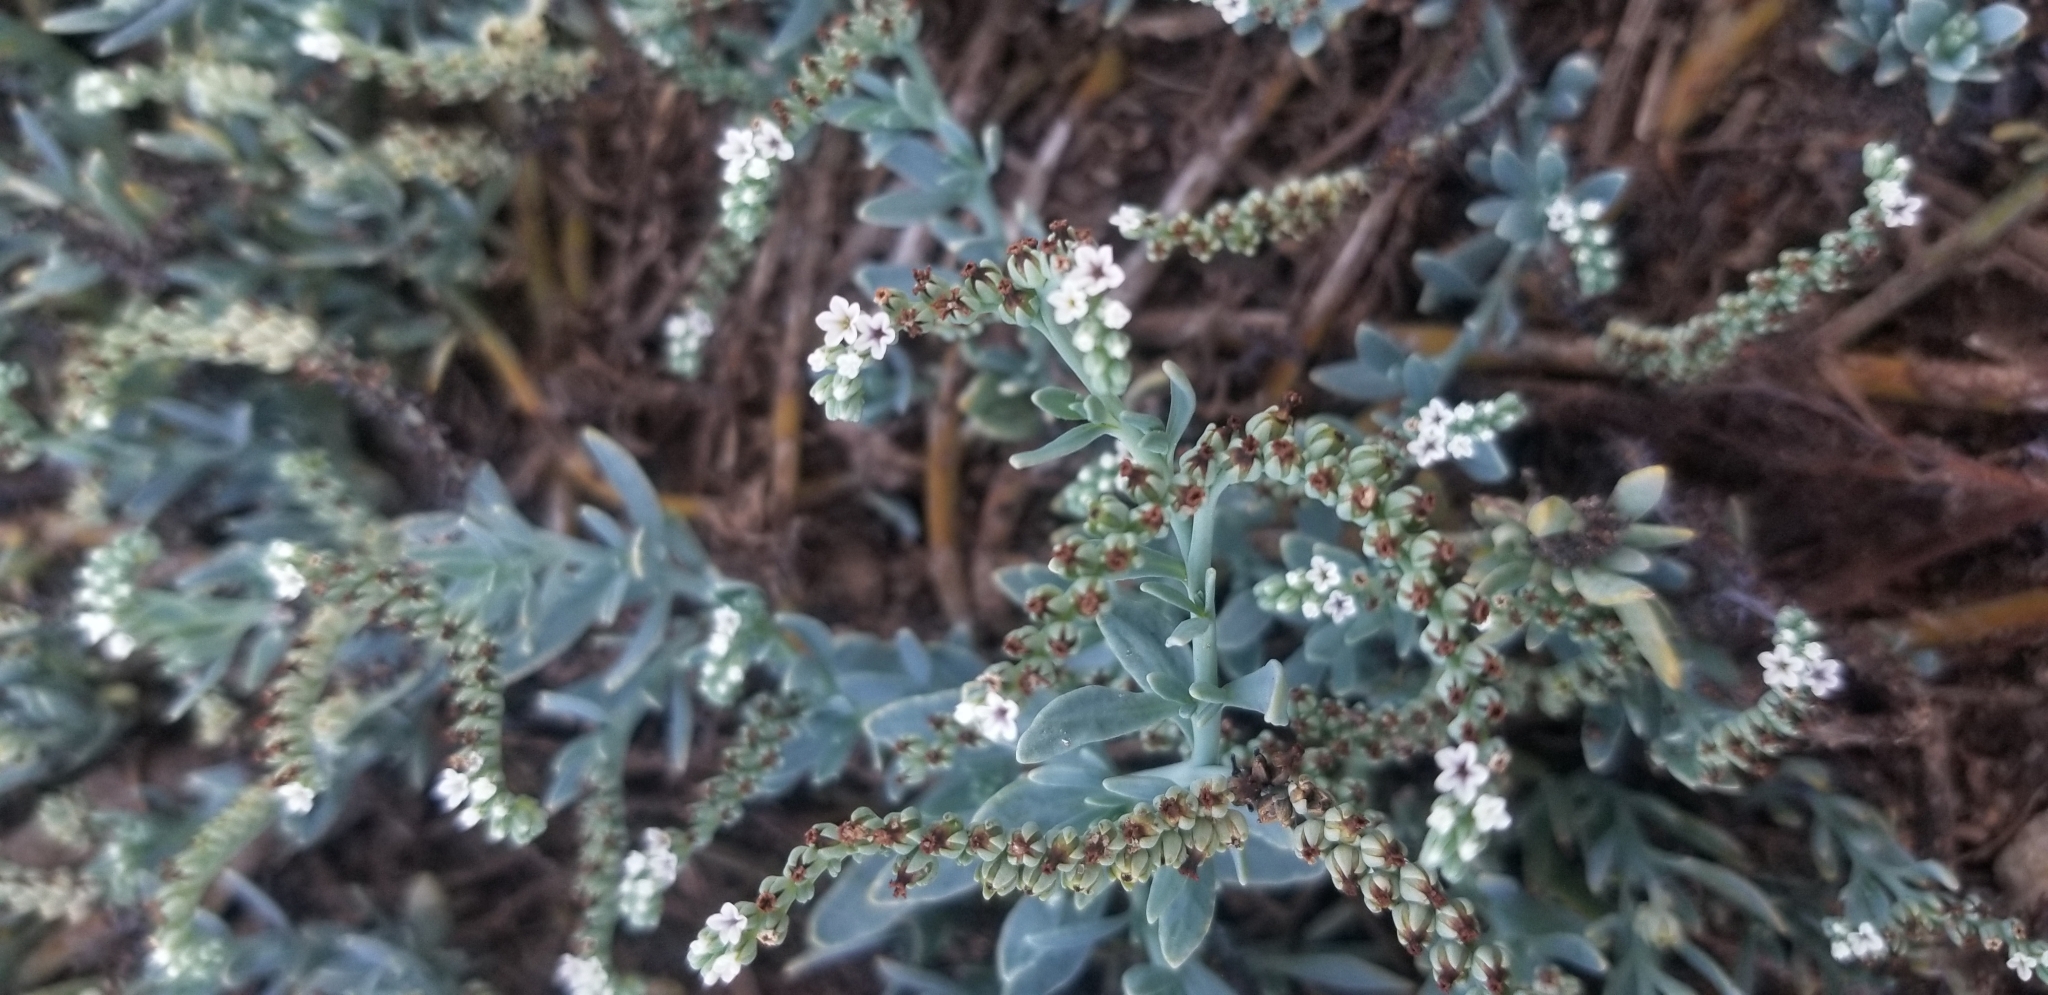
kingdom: Plantae
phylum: Tracheophyta
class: Magnoliopsida
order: Boraginales
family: Heliotropiaceae
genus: Heliotropium
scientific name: Heliotropium curassavicum
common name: Seaside heliotrope
